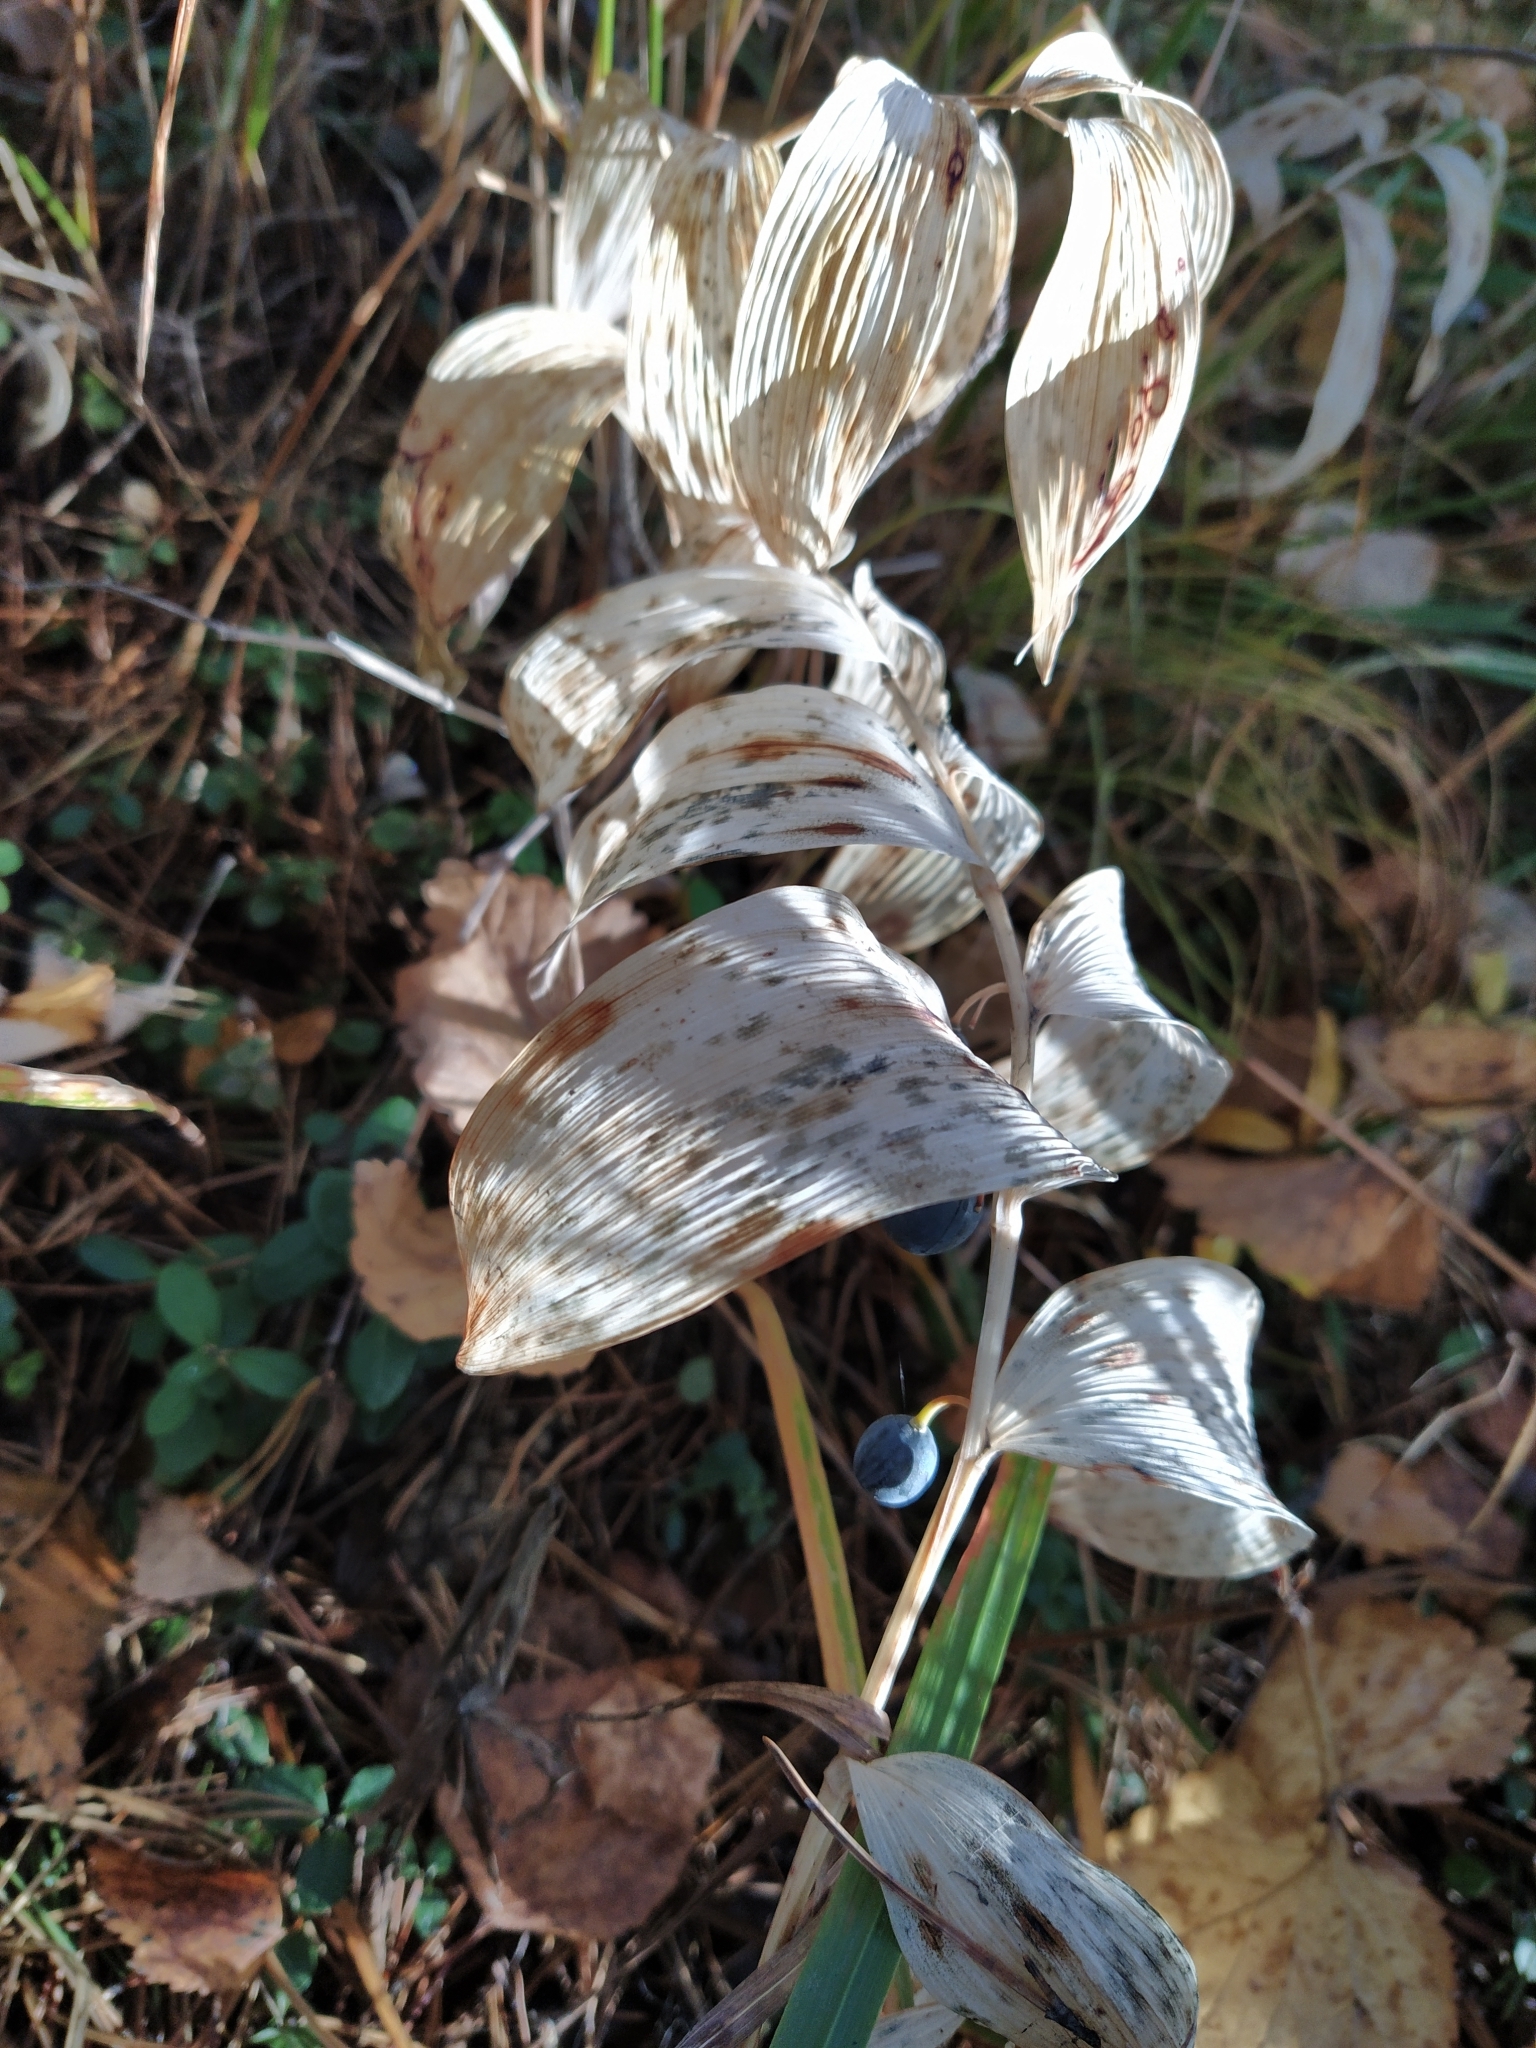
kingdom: Plantae
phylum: Tracheophyta
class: Liliopsida
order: Asparagales
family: Asparagaceae
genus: Polygonatum
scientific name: Polygonatum odoratum
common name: Angular solomon's-seal
